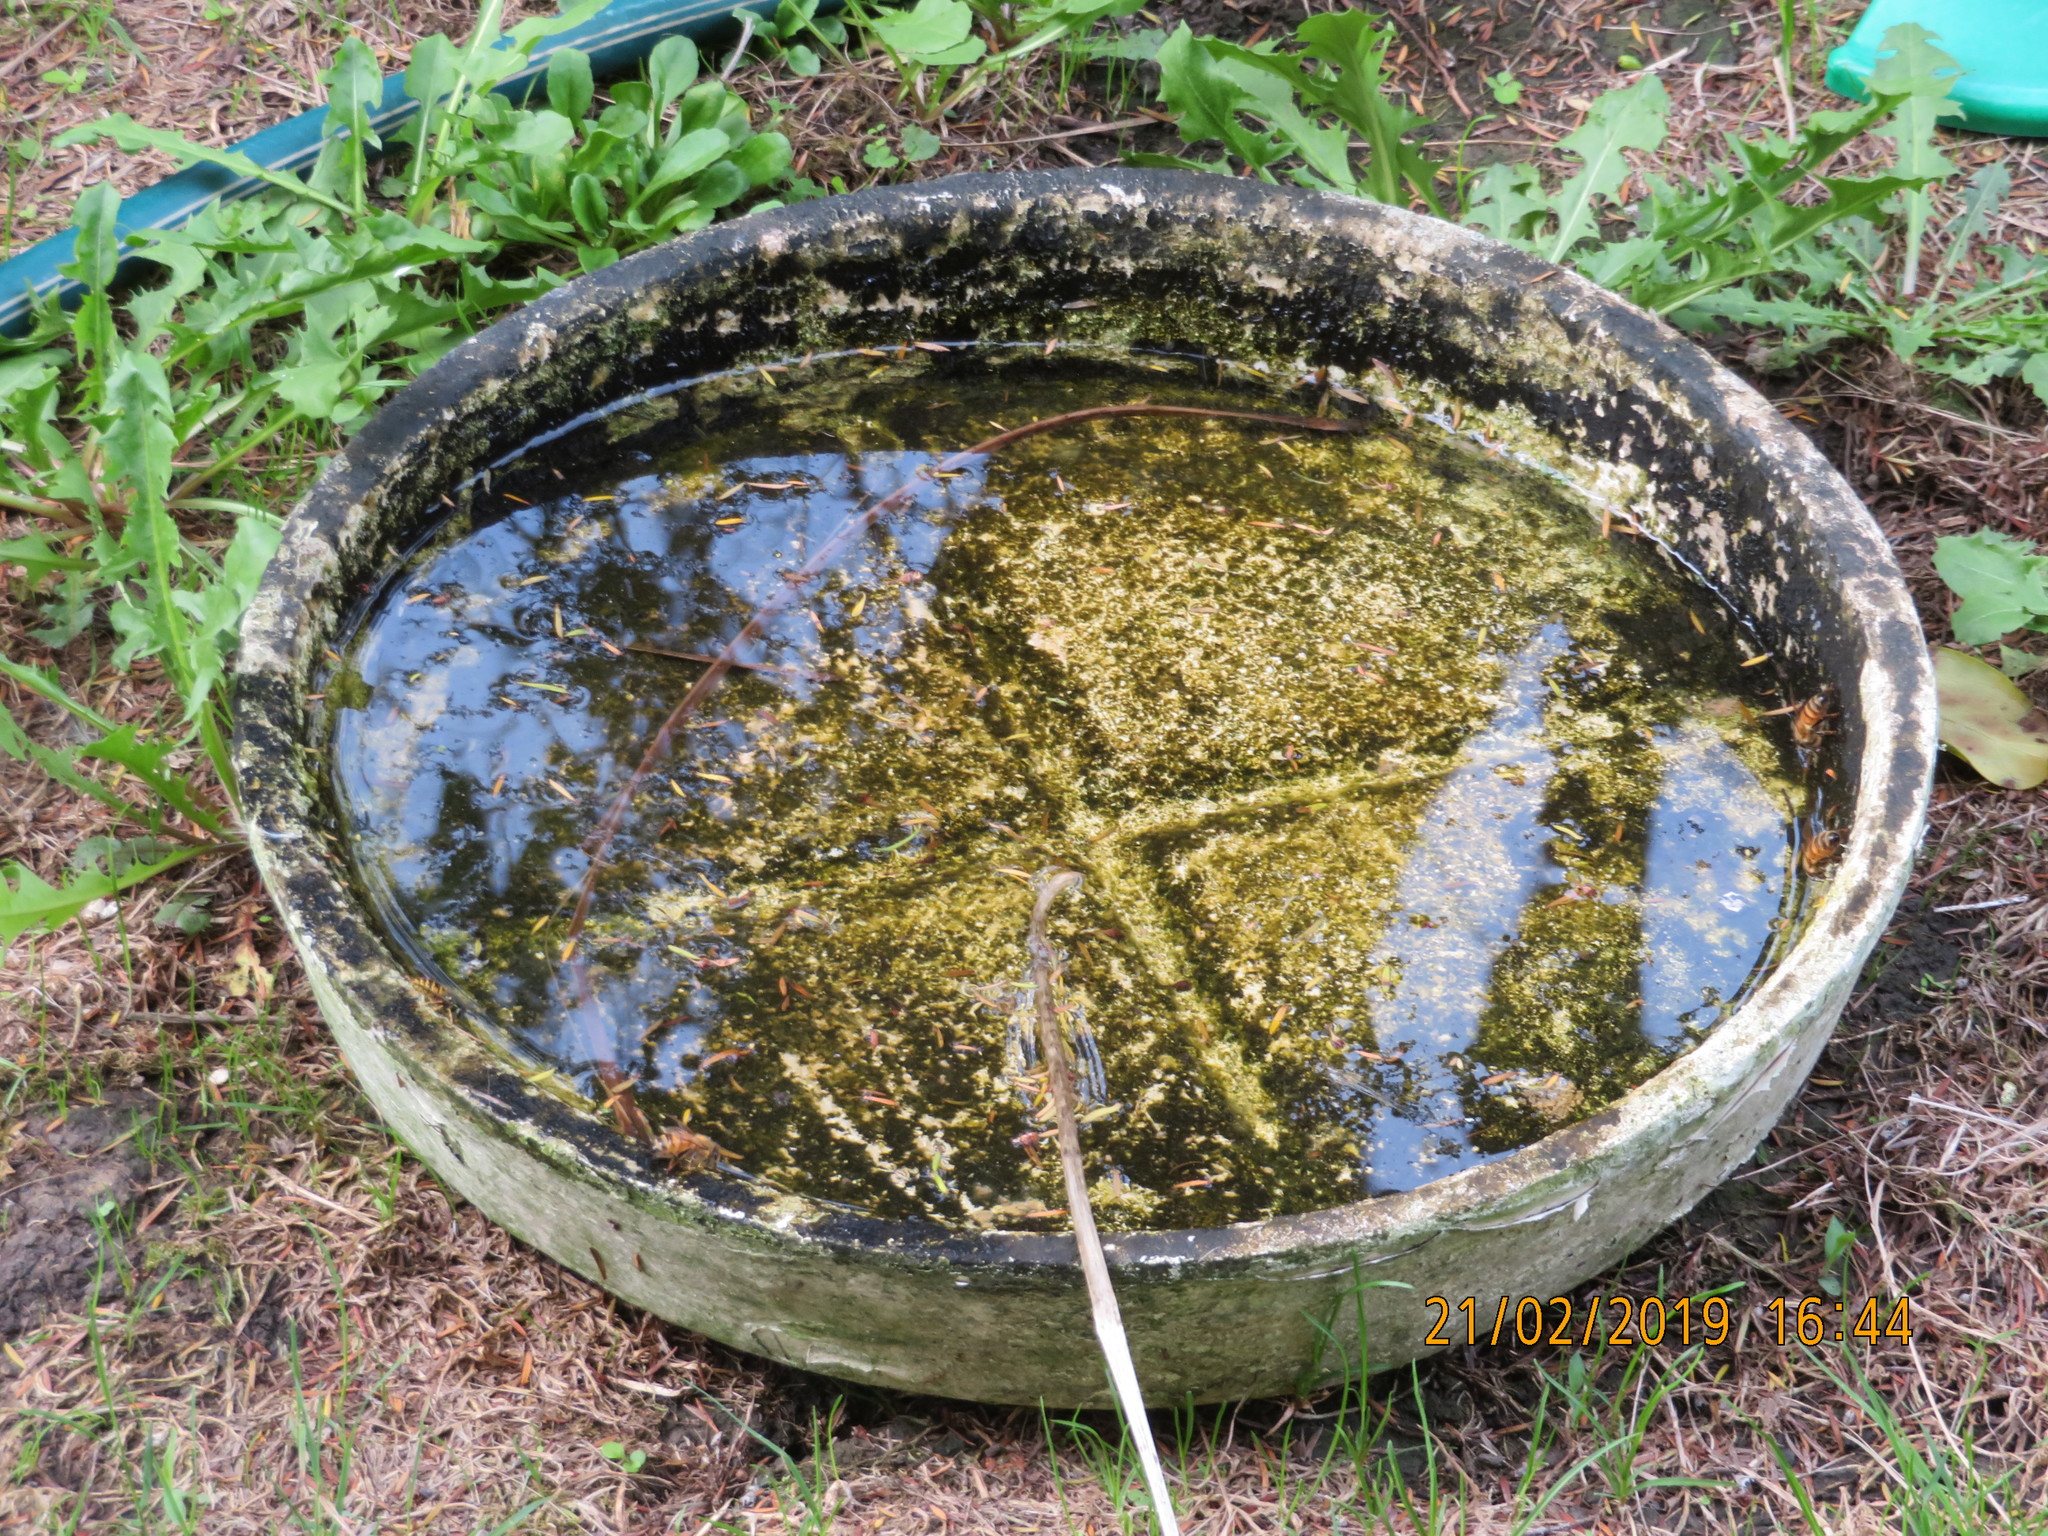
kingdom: Animalia
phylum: Arthropoda
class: Insecta
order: Hymenoptera
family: Apidae
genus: Apis
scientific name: Apis mellifera
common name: Honey bee
